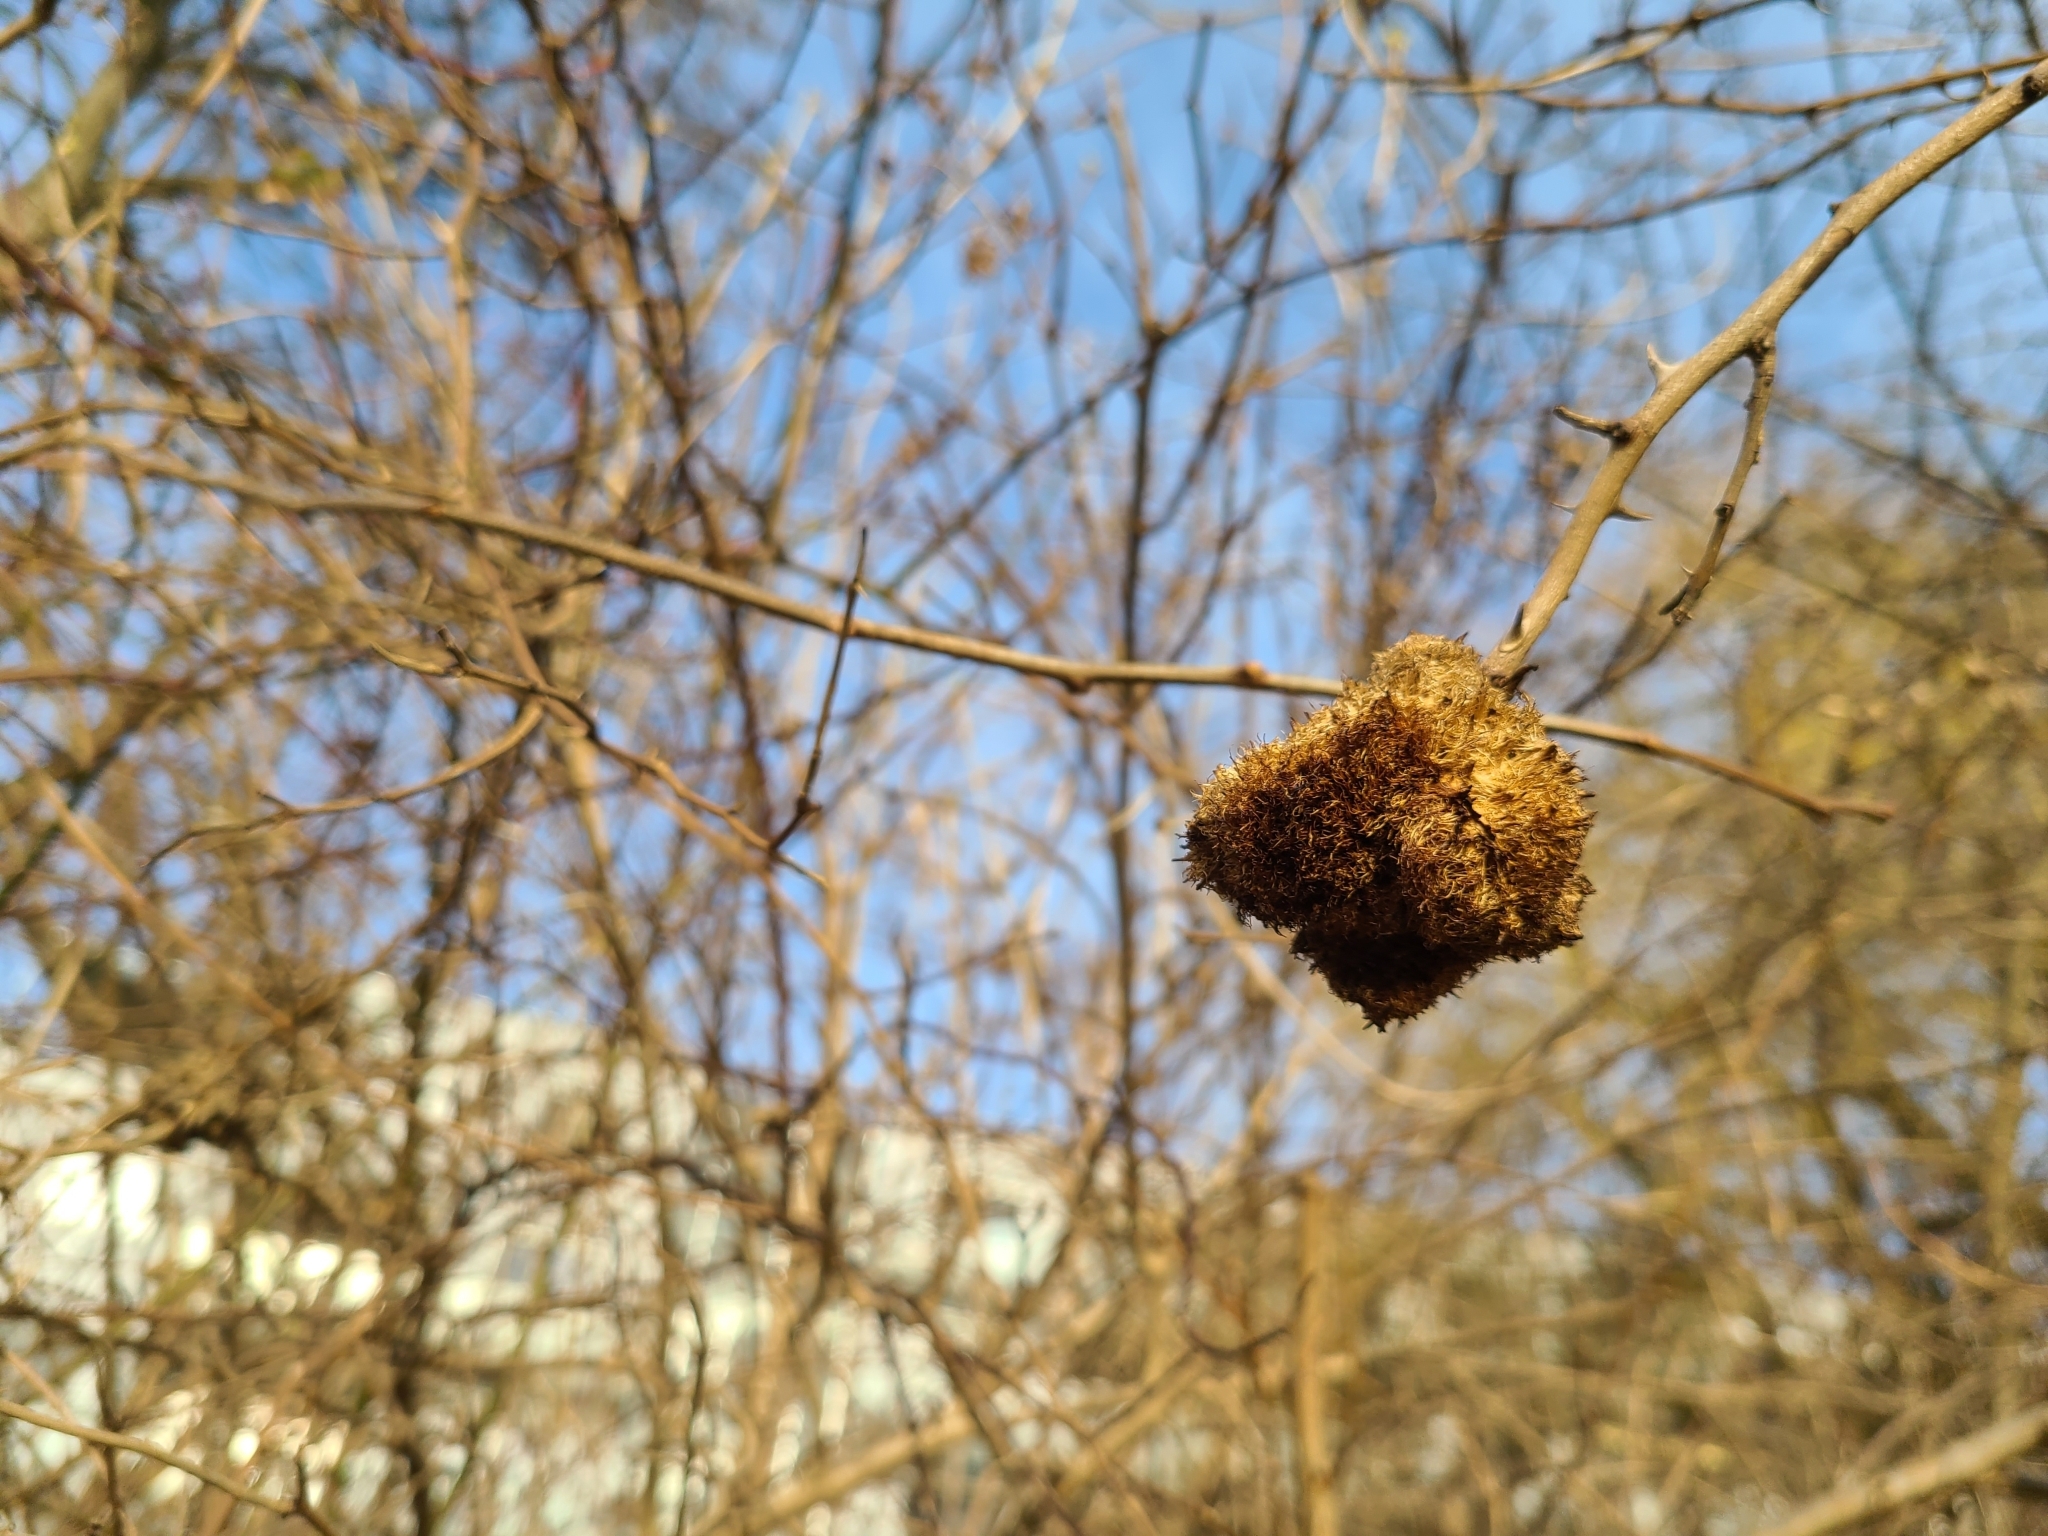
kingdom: Animalia
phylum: Arthropoda
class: Insecta
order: Hymenoptera
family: Cynipidae
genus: Diplolepis
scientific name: Diplolepis rosae
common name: Bedeguar gall
